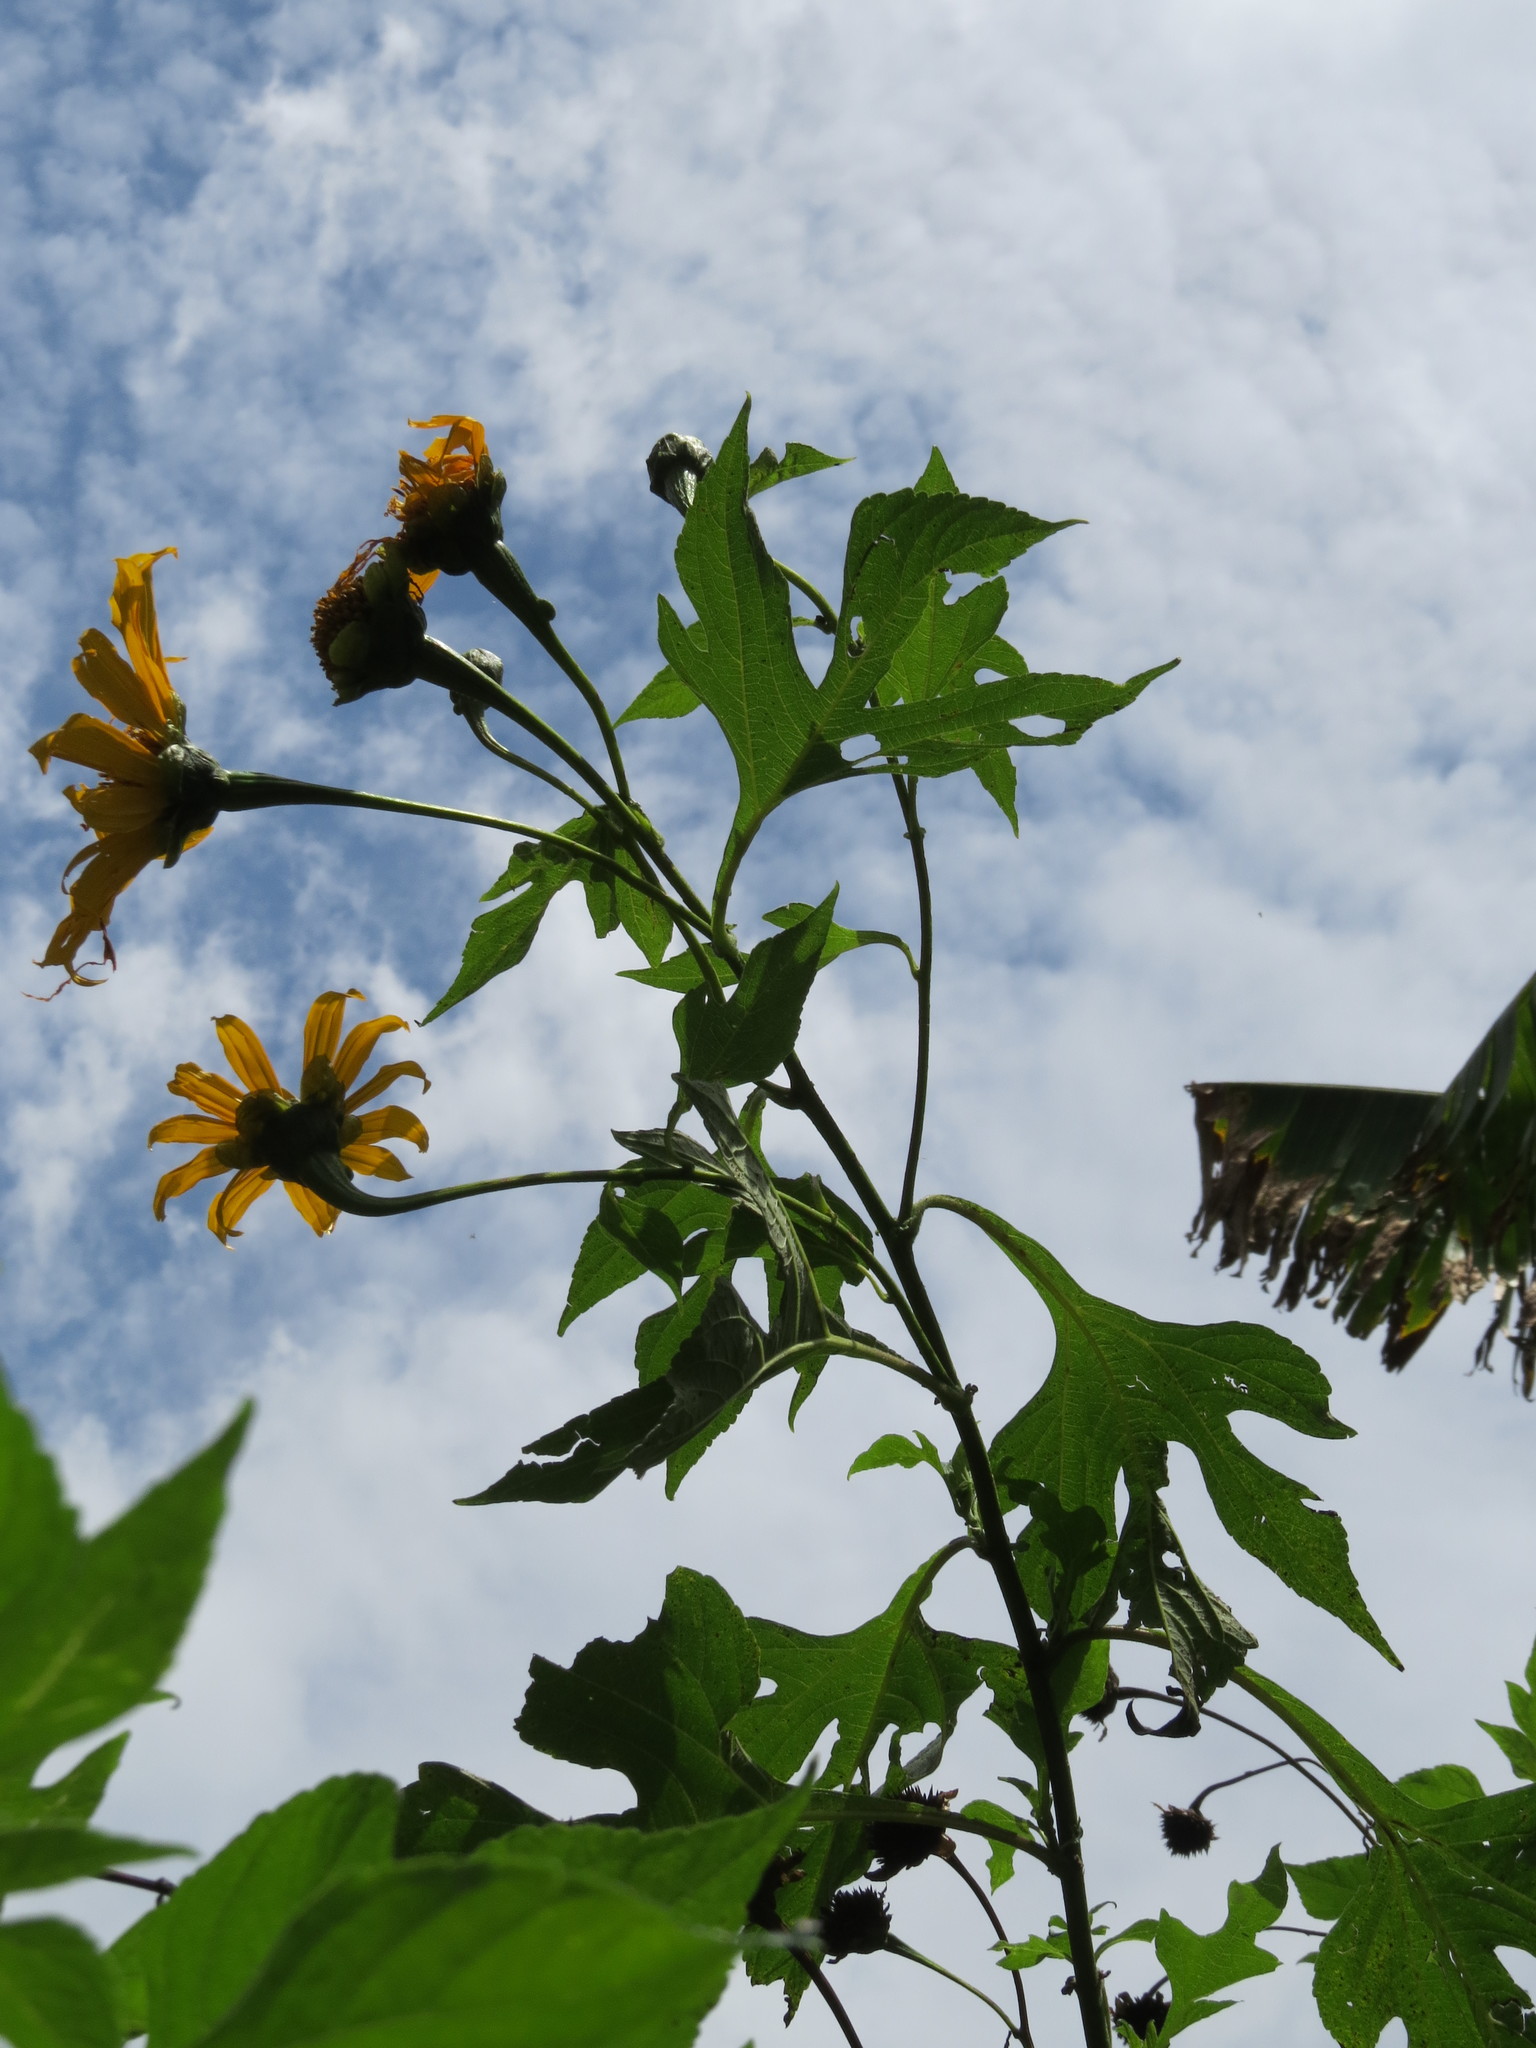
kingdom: Plantae
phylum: Tracheophyta
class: Magnoliopsida
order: Asterales
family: Asteraceae
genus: Tithonia
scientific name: Tithonia diversifolia
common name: Tree marigold
